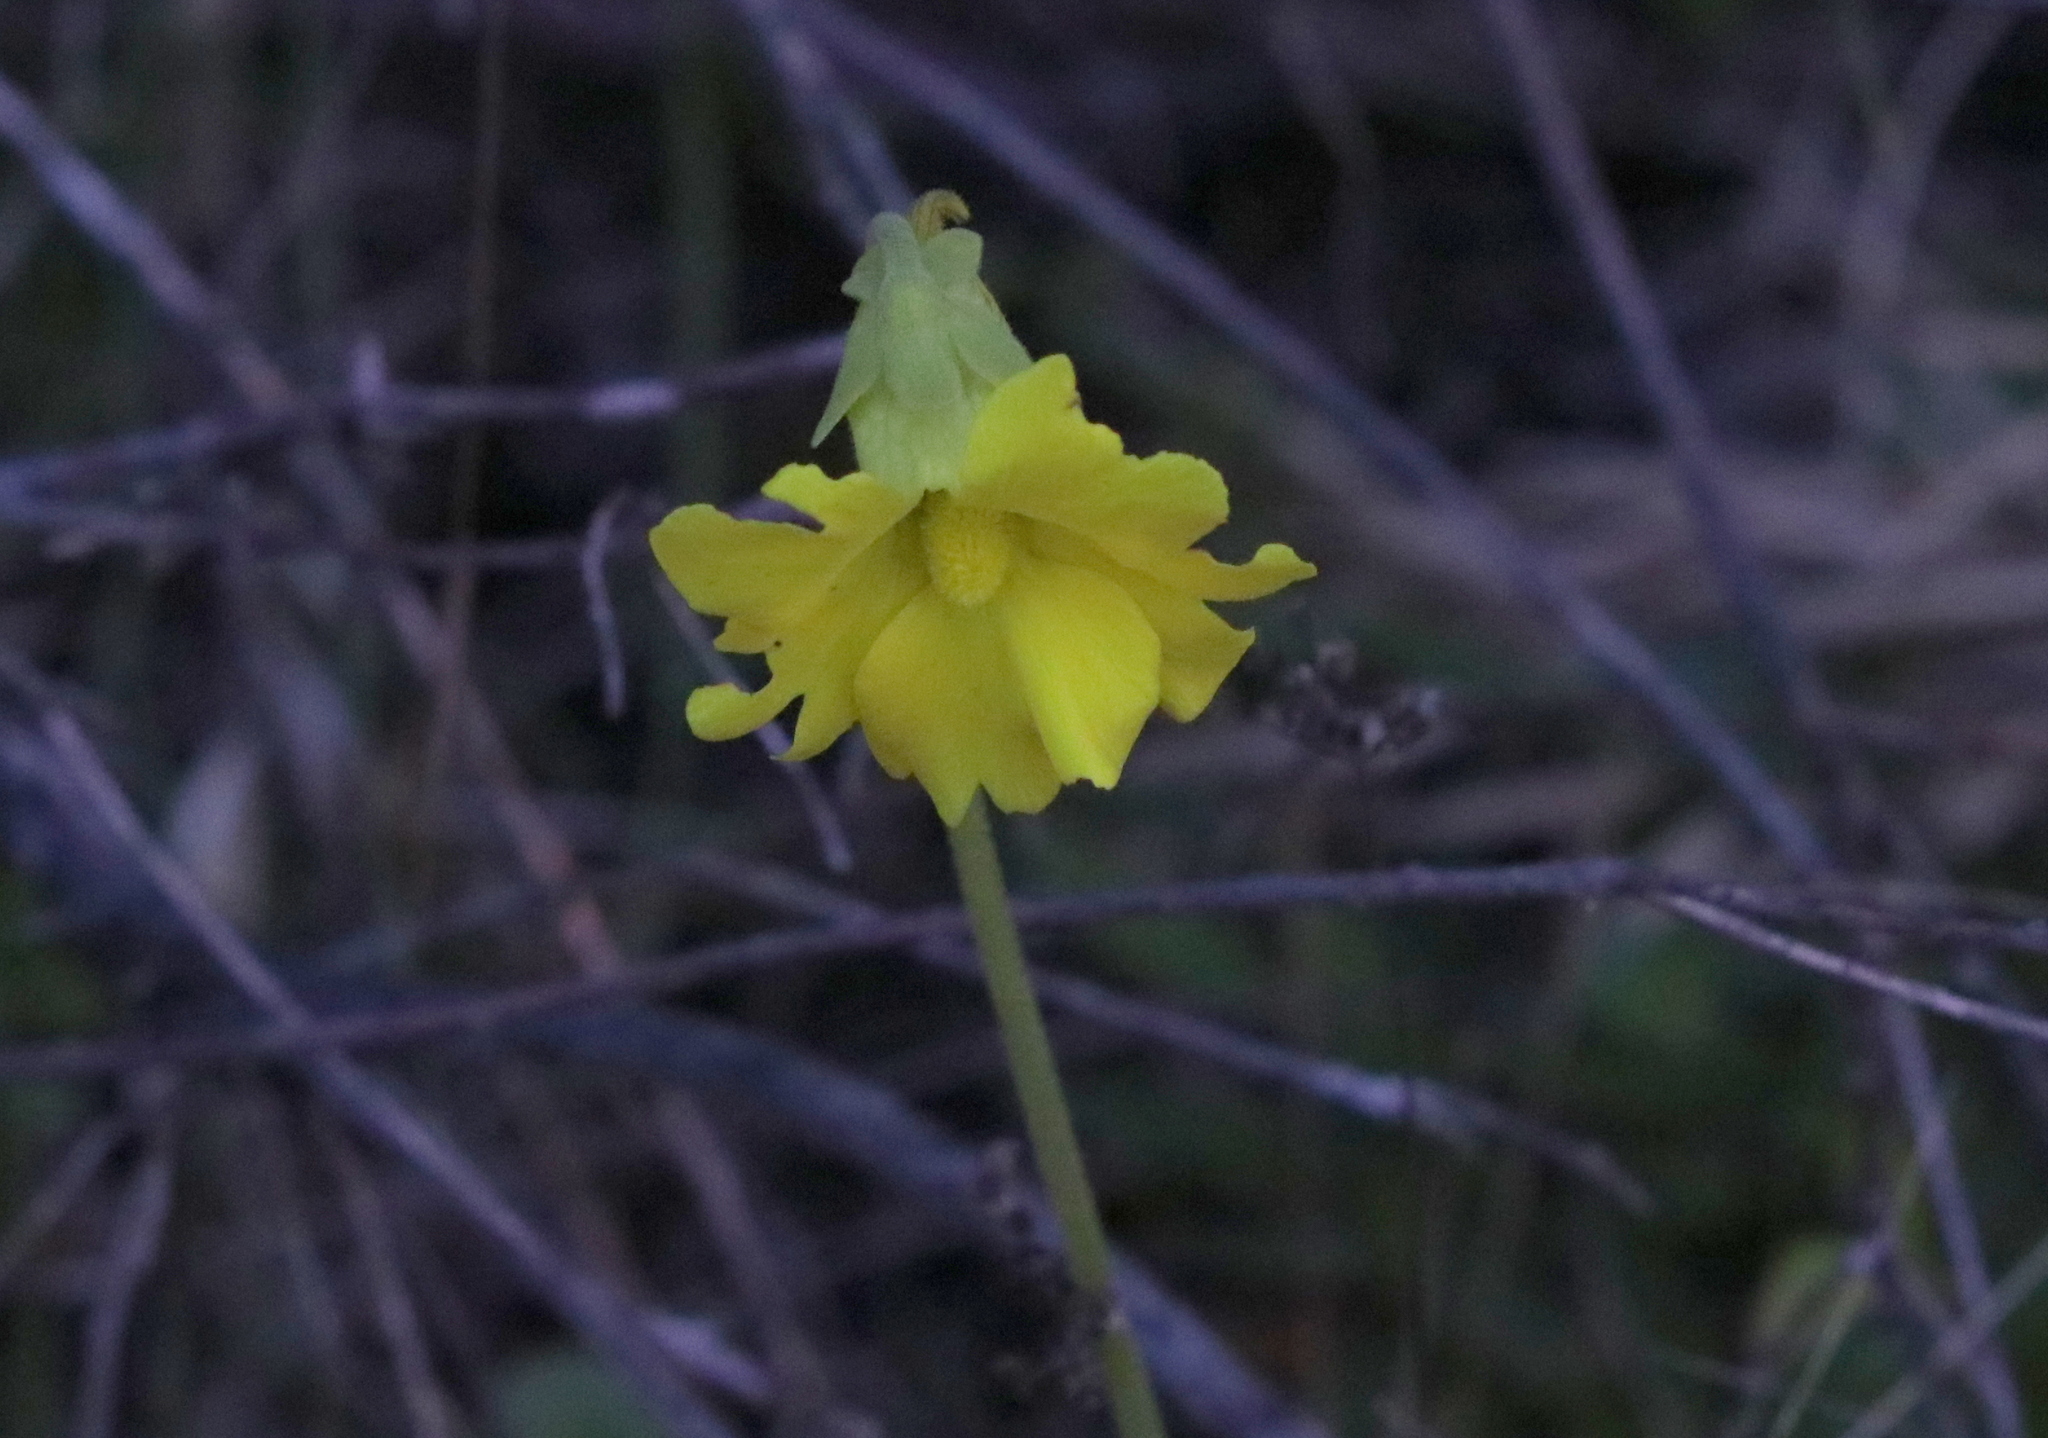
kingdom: Plantae
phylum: Tracheophyta
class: Magnoliopsida
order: Lamiales
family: Lentibulariaceae
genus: Pinguicula
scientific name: Pinguicula lutea
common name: Yellow butterwort
